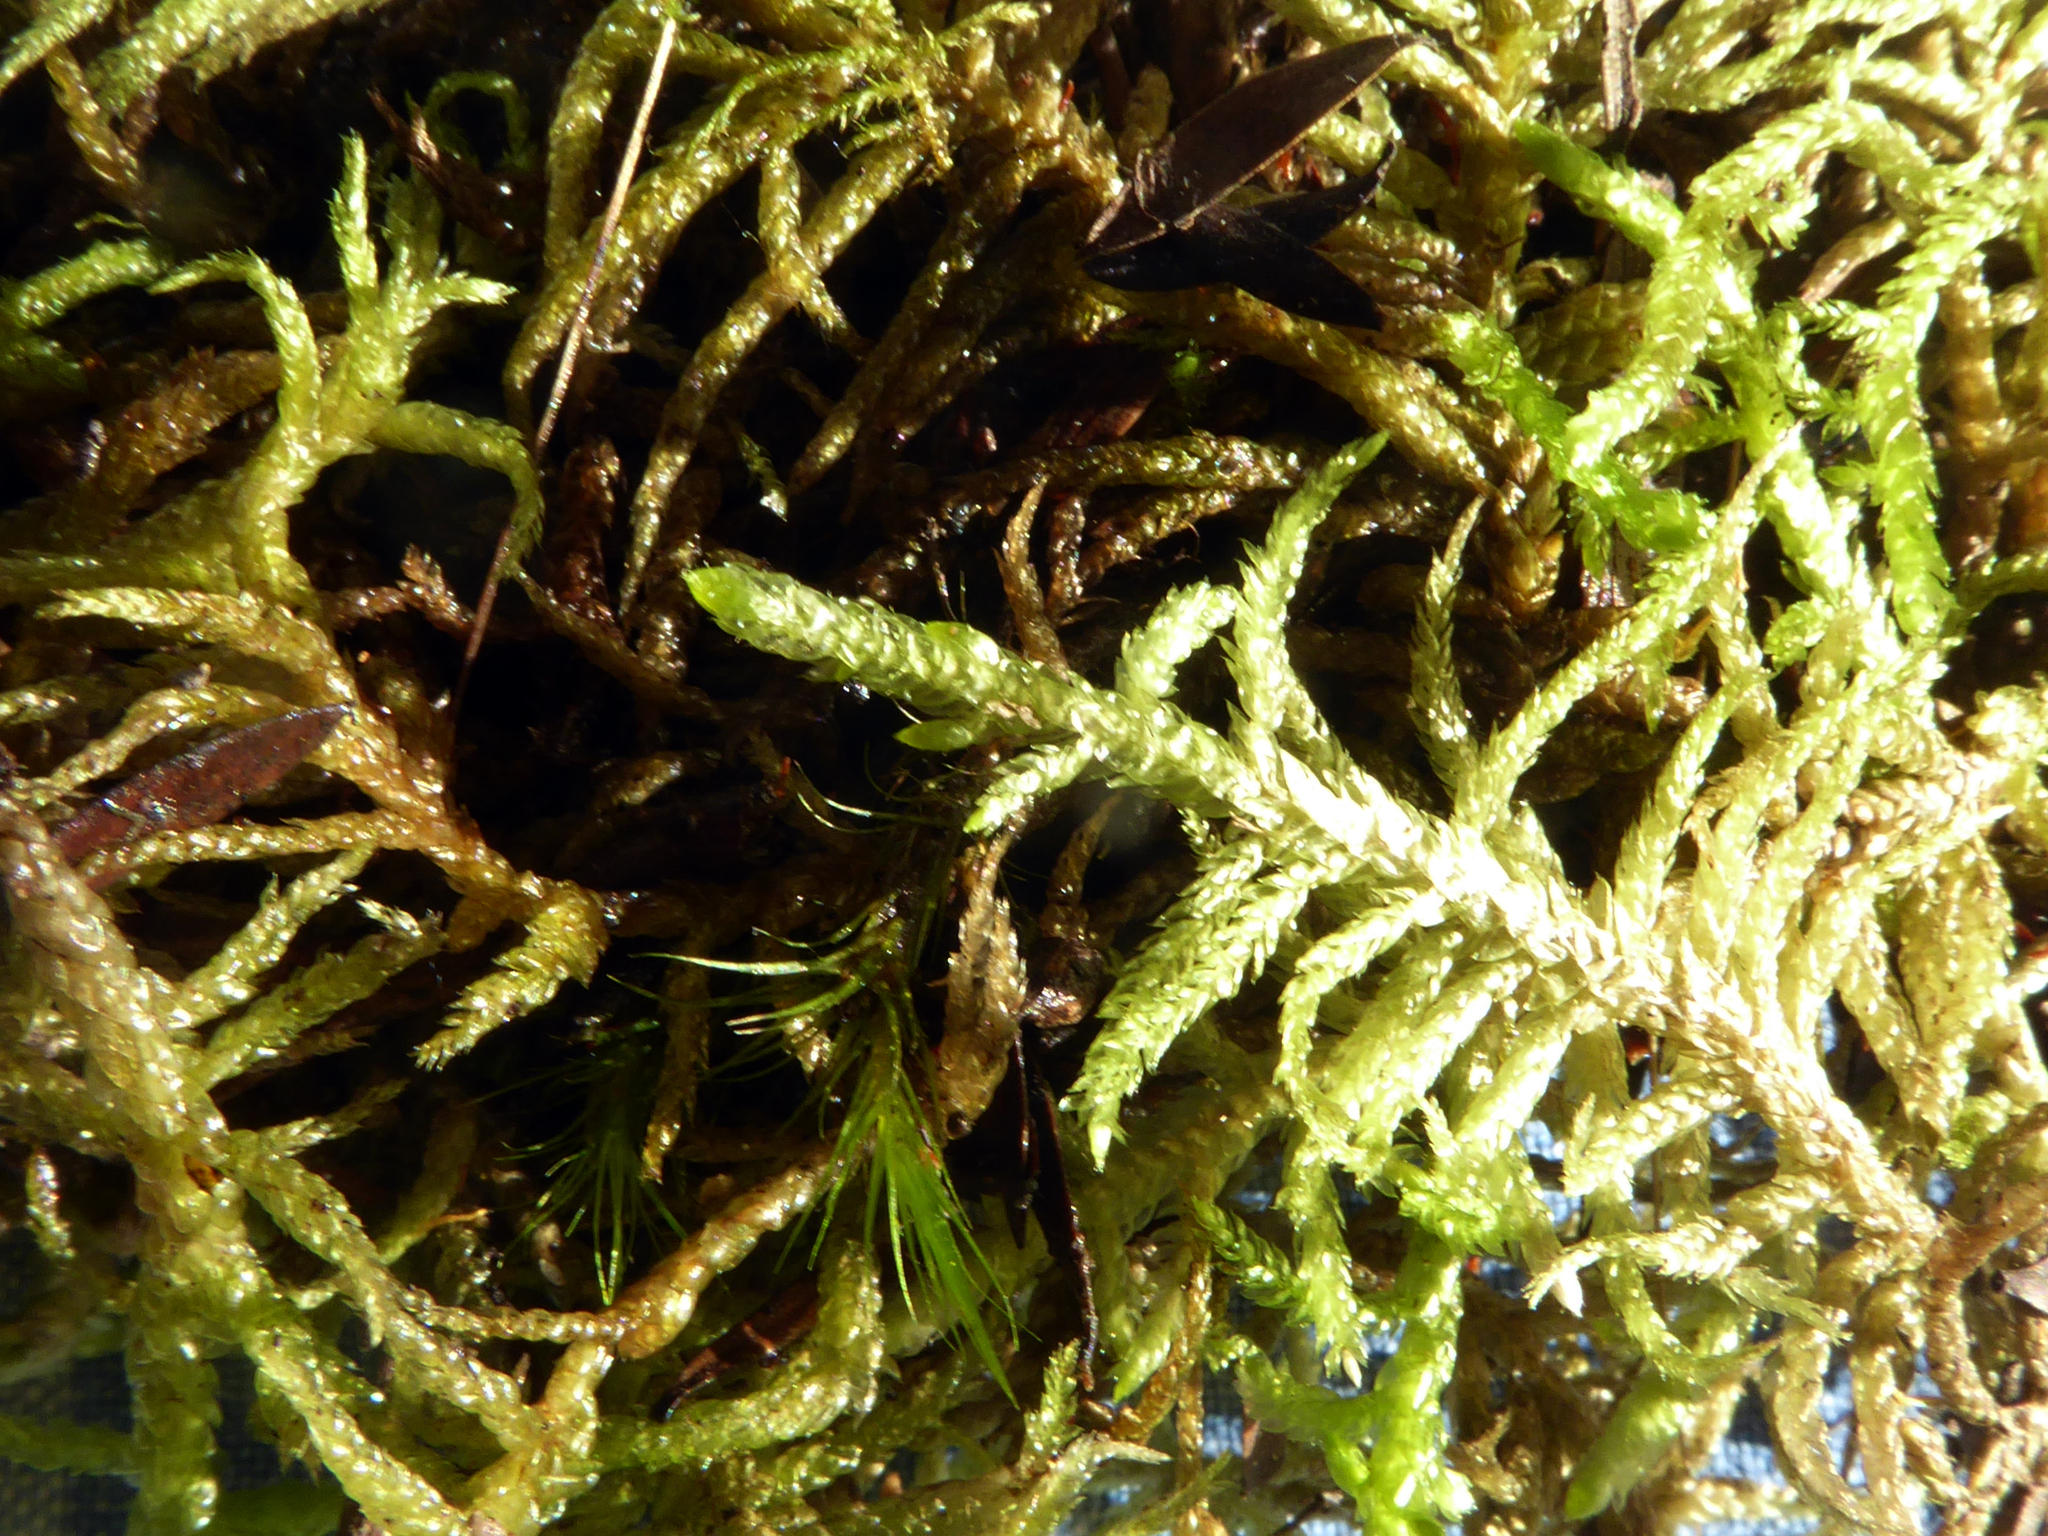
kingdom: Plantae
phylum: Bryophyta
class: Bryopsida
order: Hypnales
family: Brachytheciaceae
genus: Pseudoscleropodium
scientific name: Pseudoscleropodium purum
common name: Neat feather-moss
